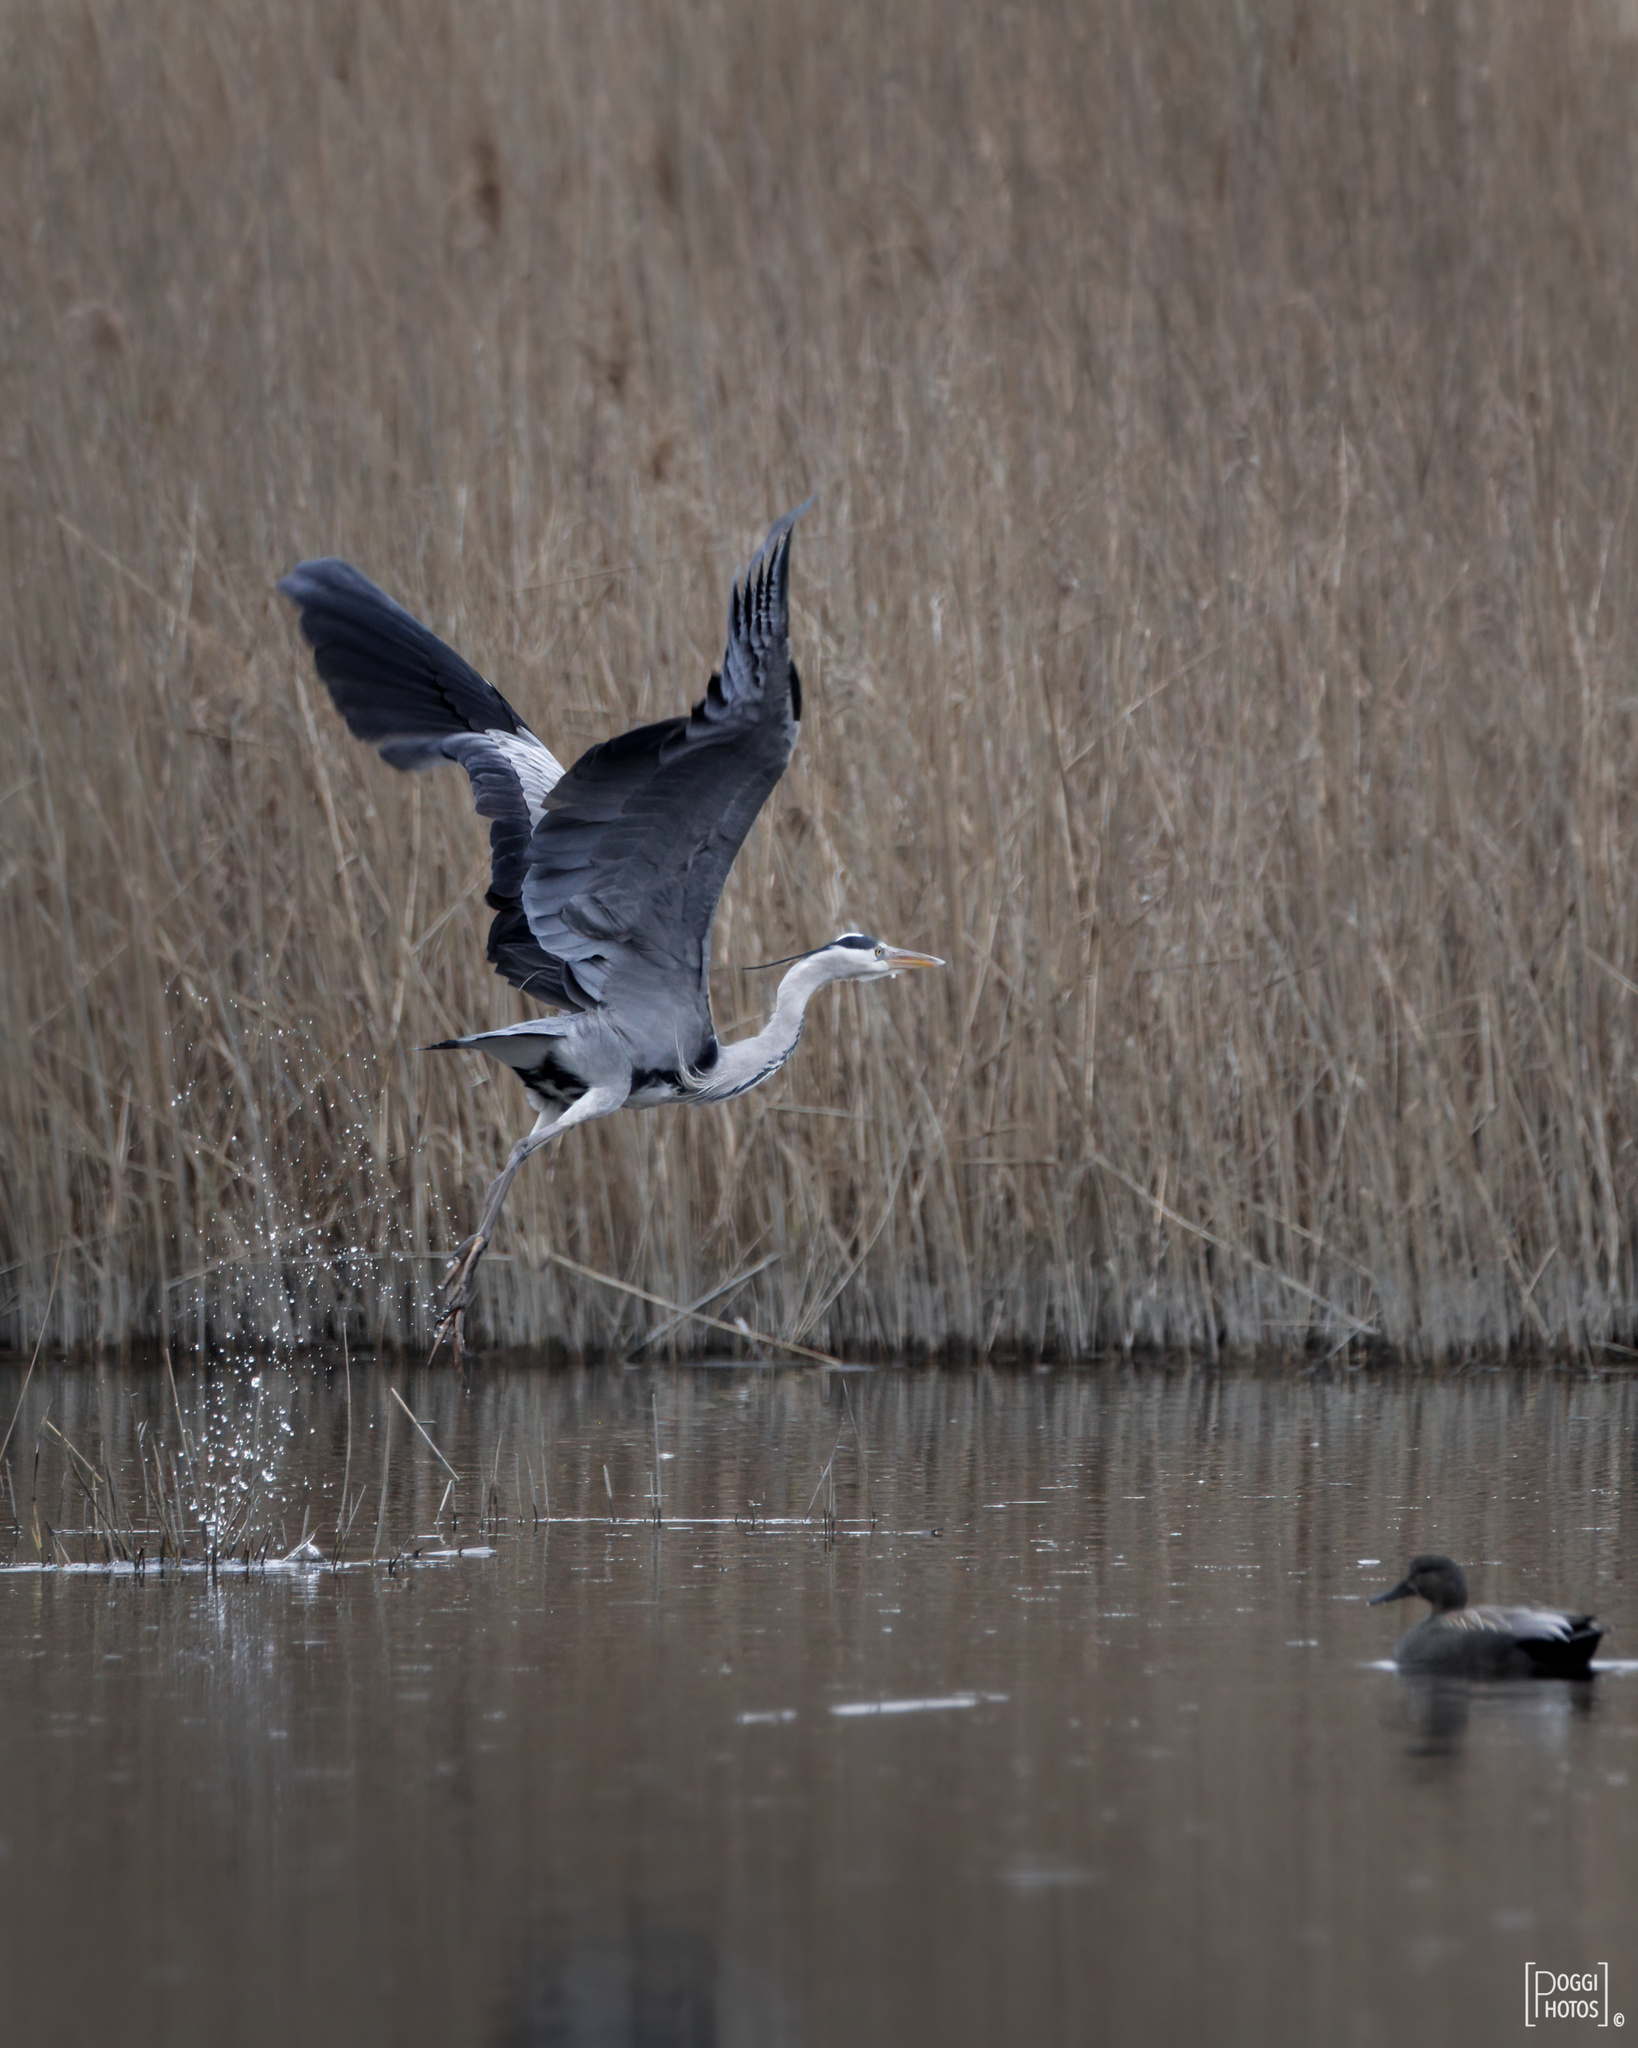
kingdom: Animalia
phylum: Chordata
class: Aves
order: Pelecaniformes
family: Ardeidae
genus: Ardea
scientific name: Ardea cinerea
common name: Grey heron
